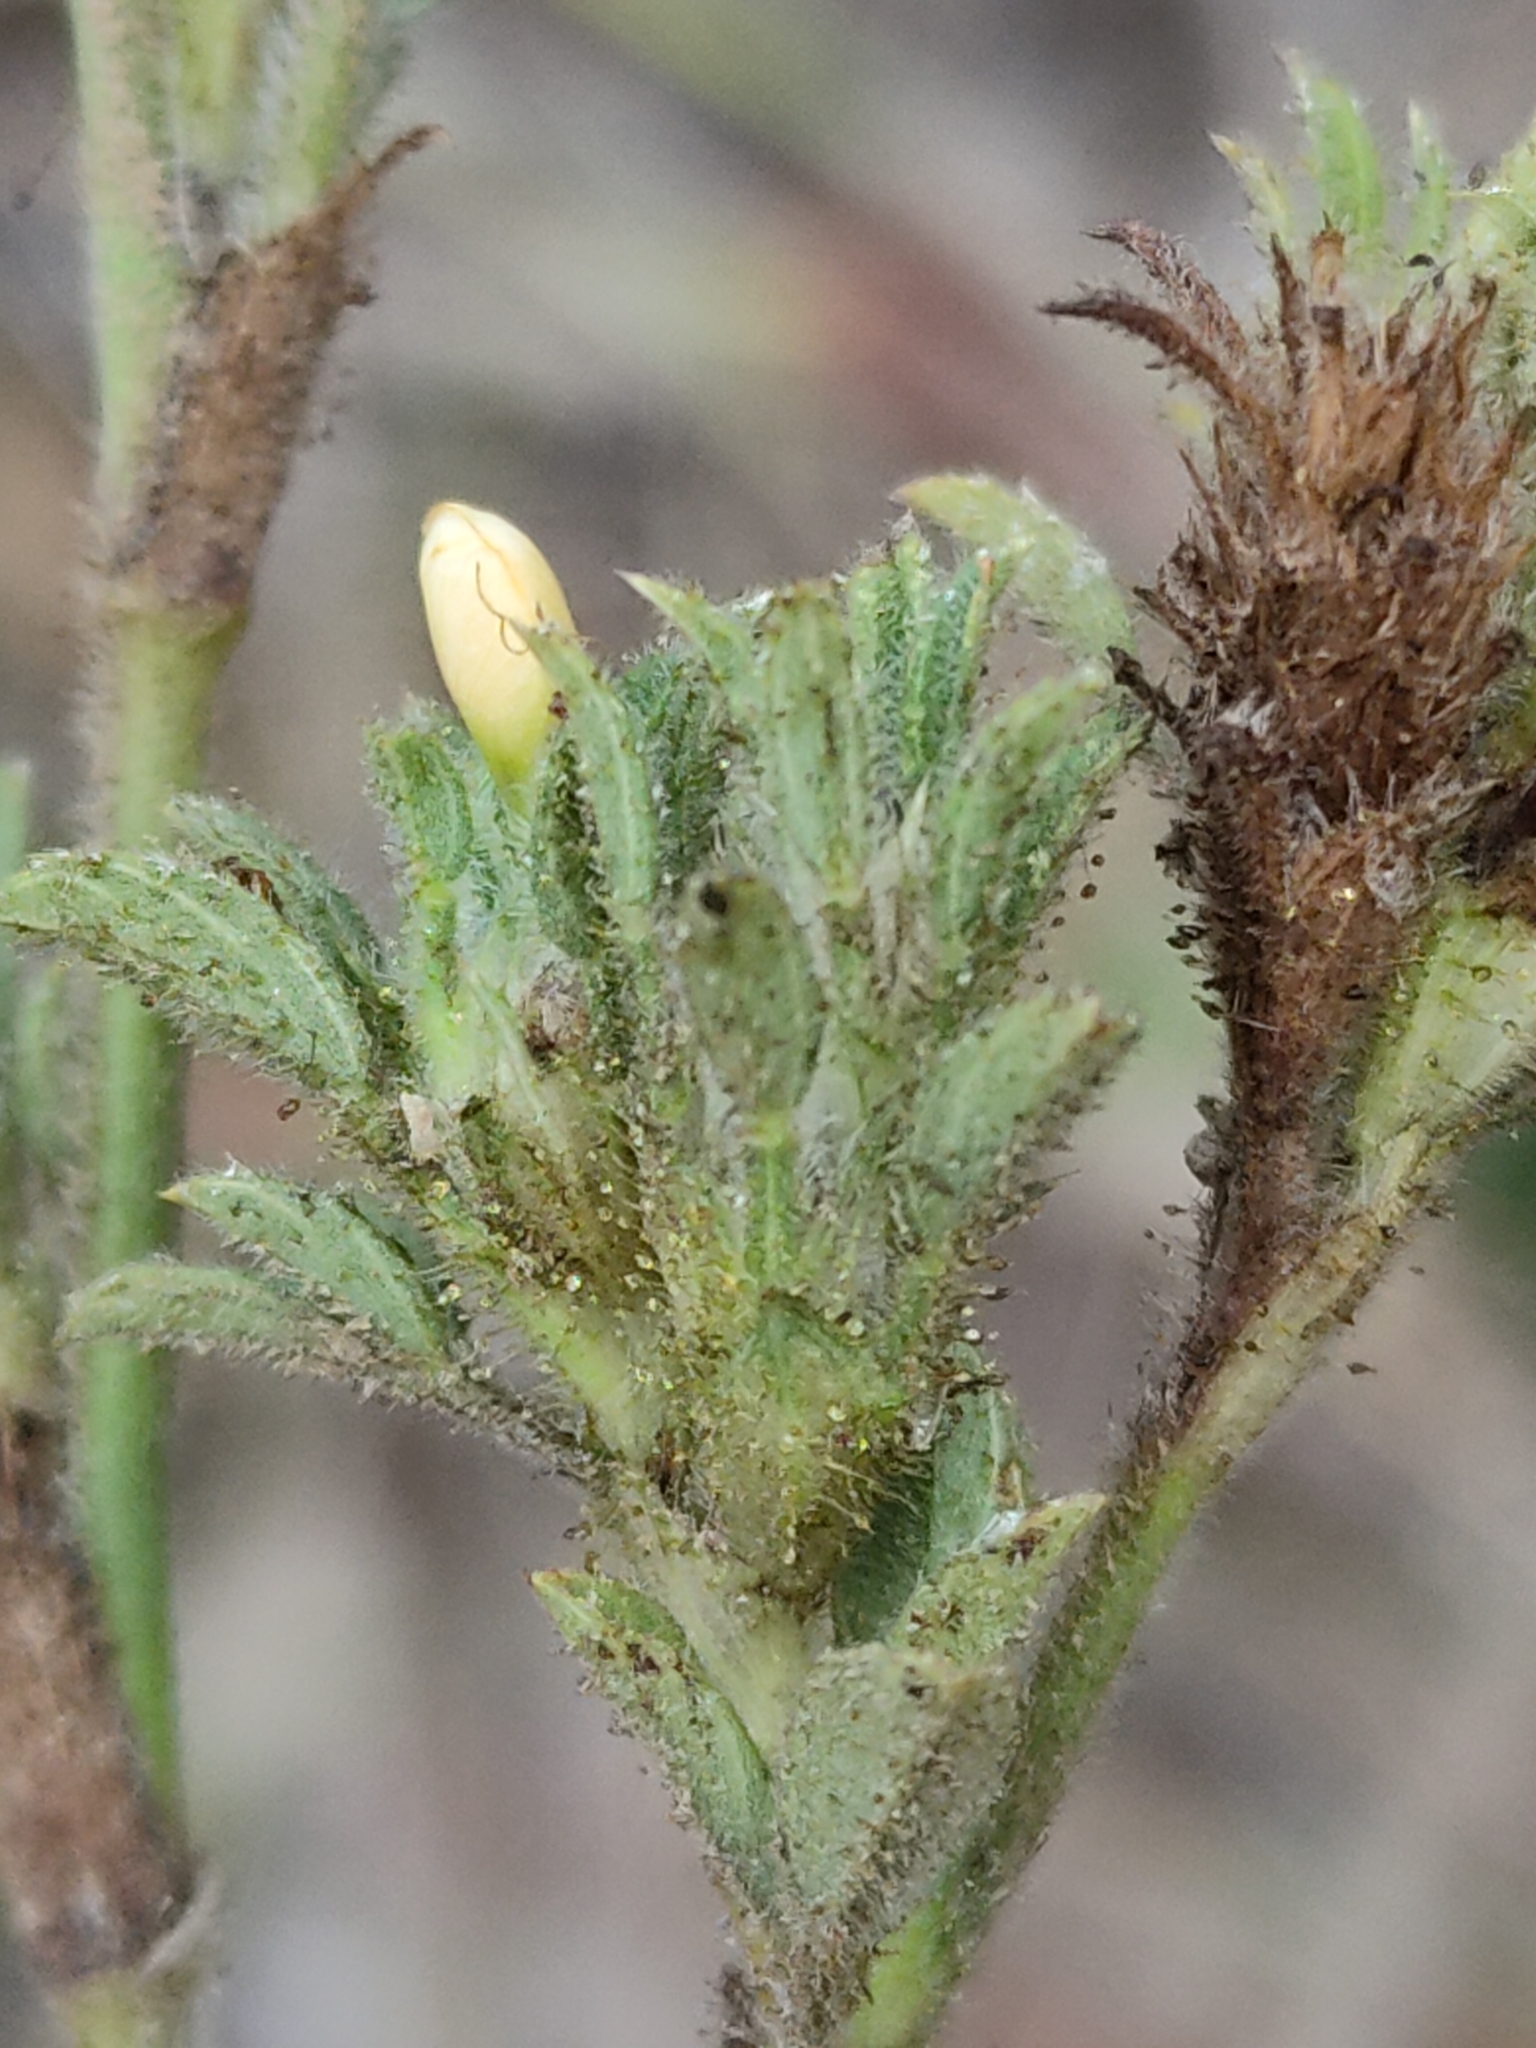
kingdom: Plantae
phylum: Tracheophyta
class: Magnoliopsida
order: Fabales
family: Fabaceae
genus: Stylosanthes
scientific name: Stylosanthes viscosa
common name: Viscid pencil-flower
